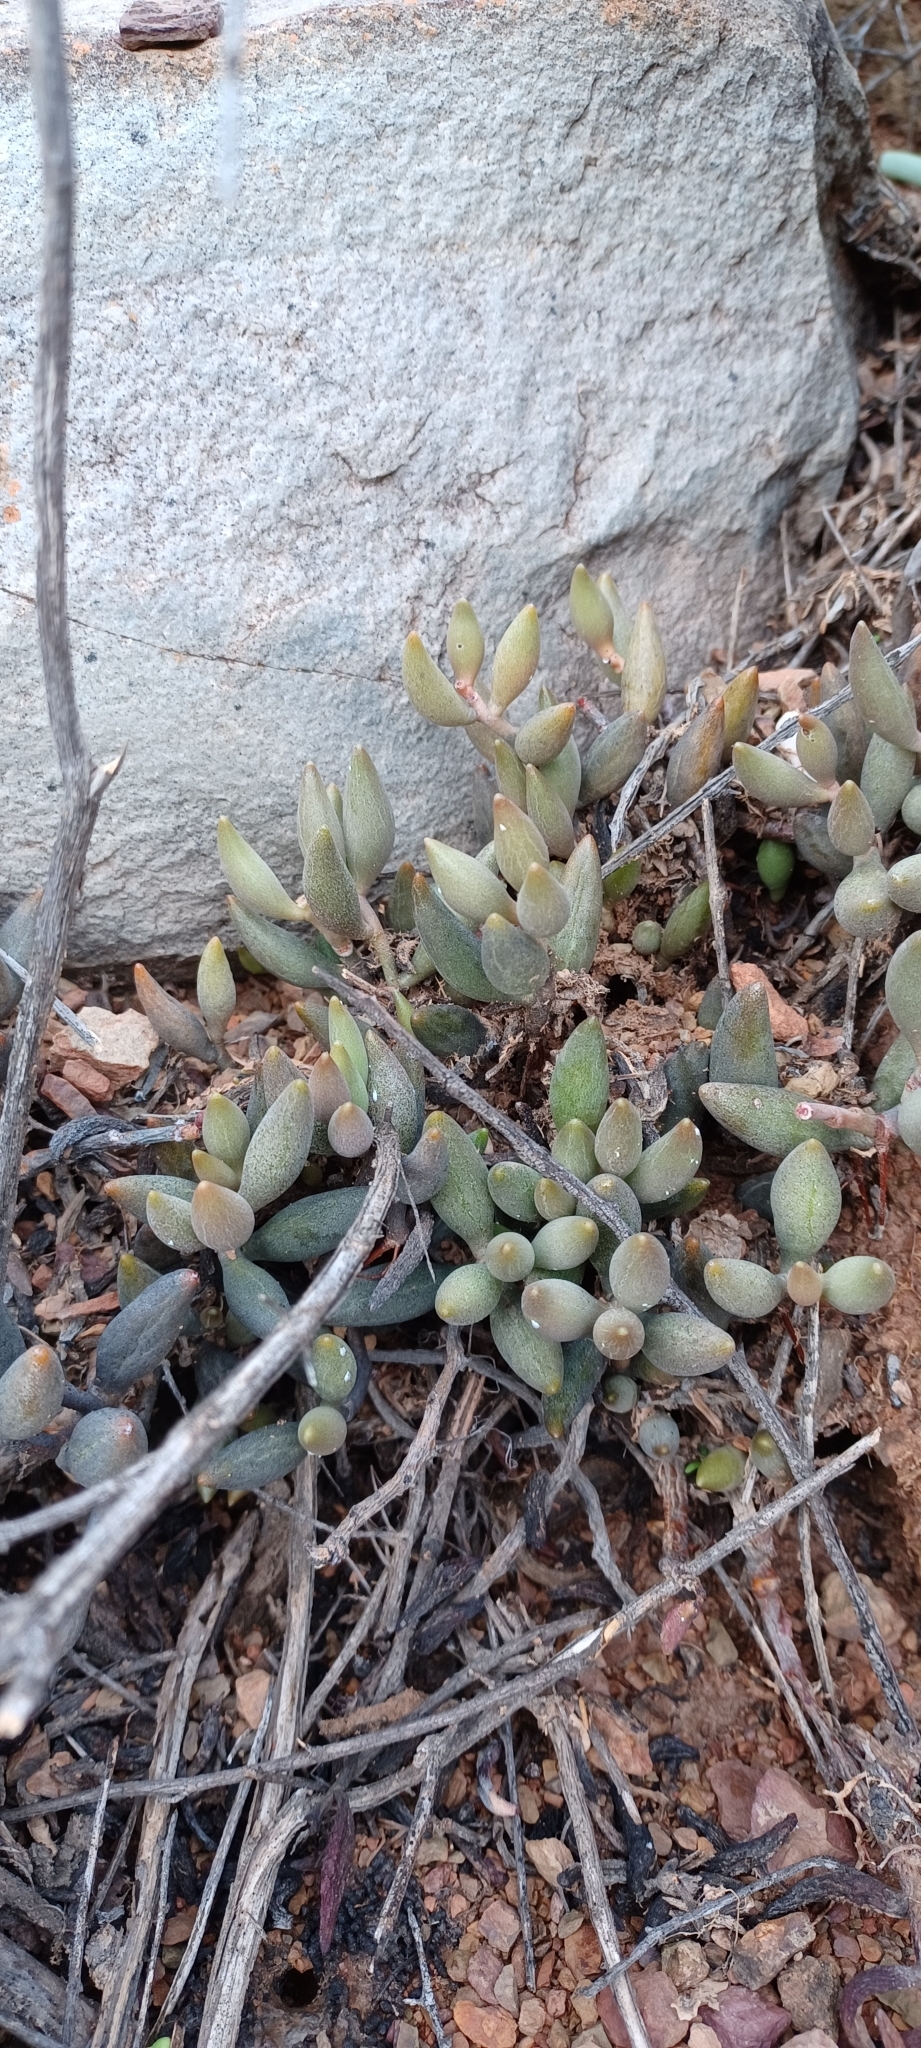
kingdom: Plantae
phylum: Tracheophyta
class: Magnoliopsida
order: Saxifragales
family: Crassulaceae
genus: Adromischus
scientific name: Adromischus filicaulis
